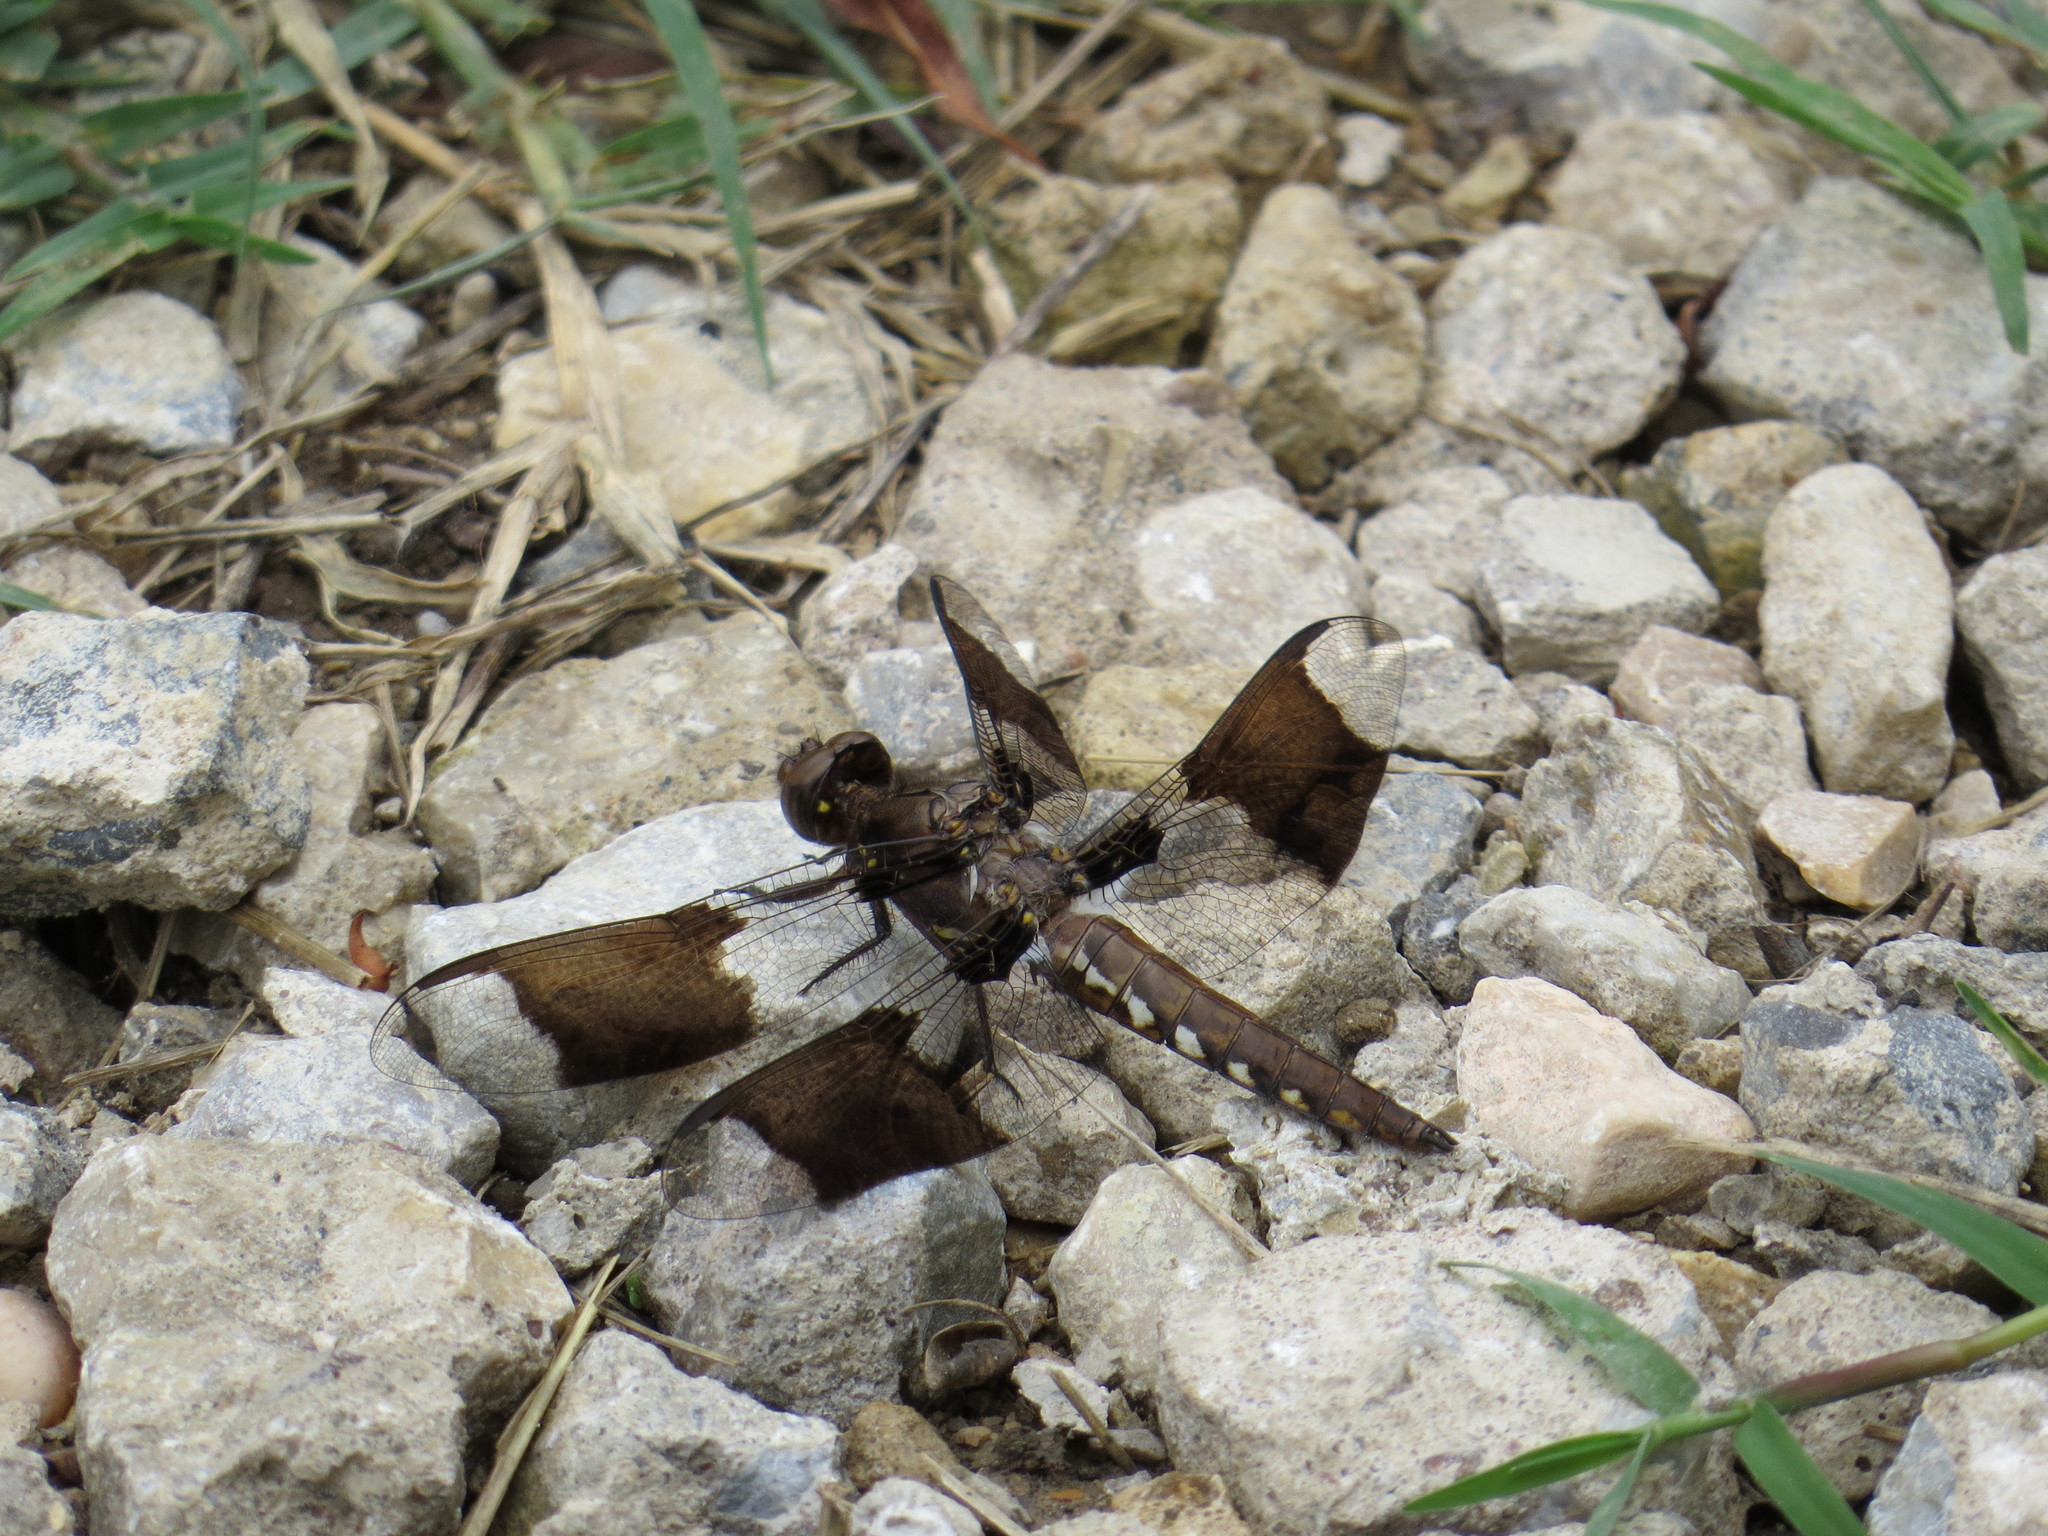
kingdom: Animalia
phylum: Arthropoda
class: Insecta
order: Odonata
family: Libellulidae
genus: Plathemis
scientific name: Plathemis lydia
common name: Common whitetail
